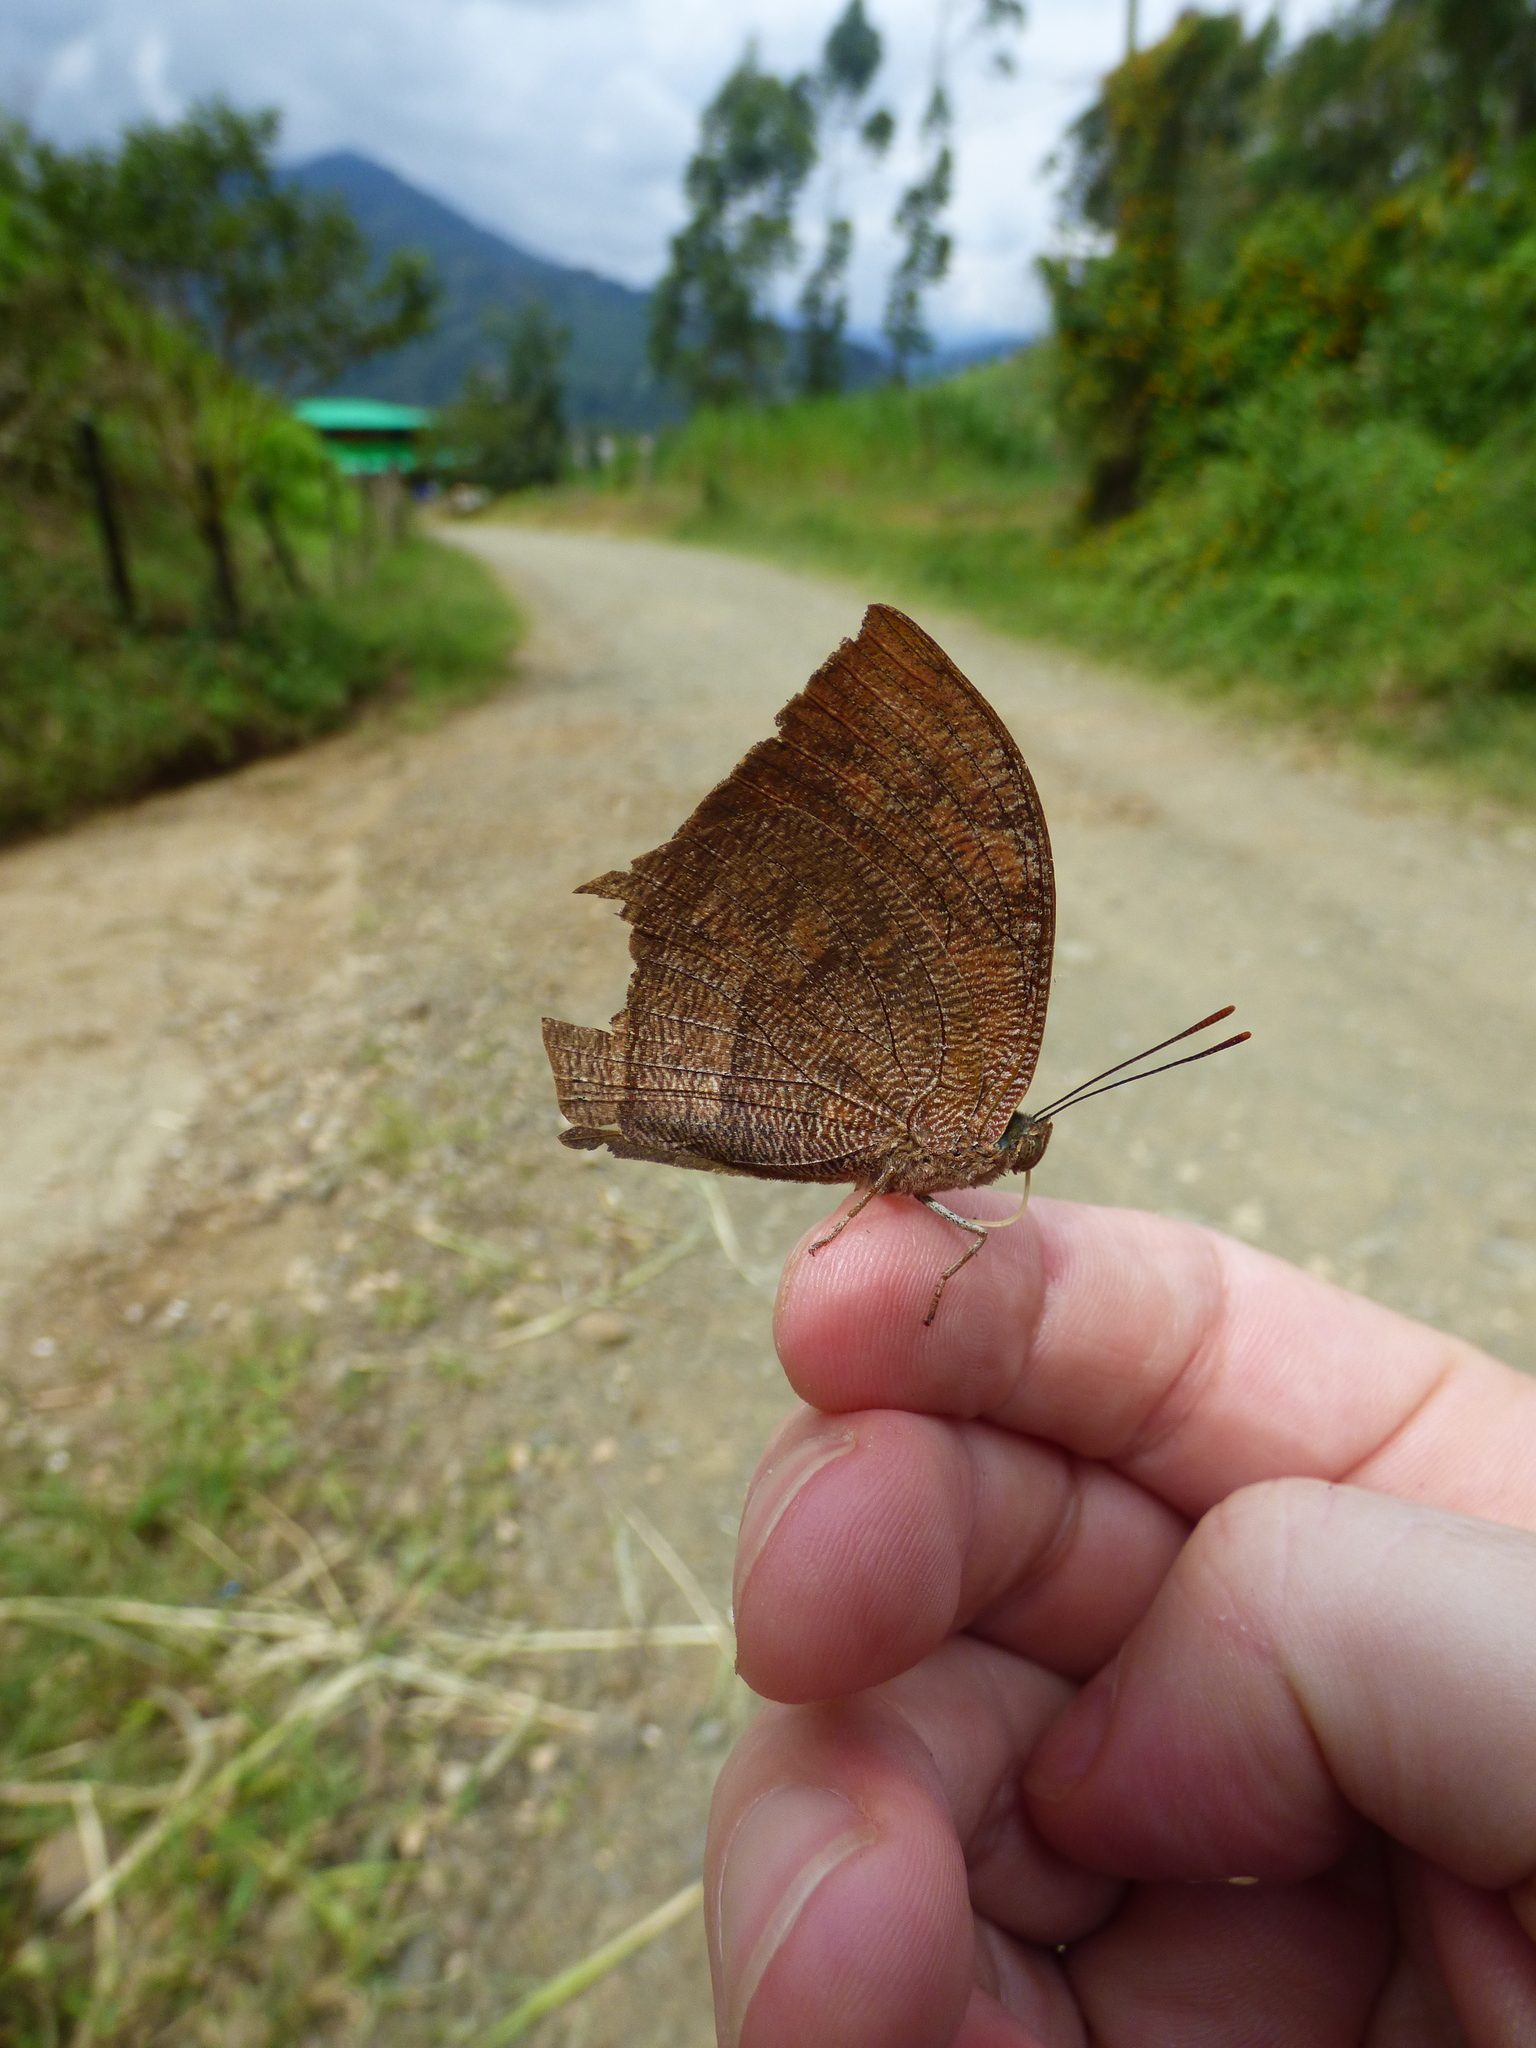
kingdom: Animalia
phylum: Arthropoda
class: Insecta
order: Lepidoptera
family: Nymphalidae
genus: Fountainea
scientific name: Fountainea
